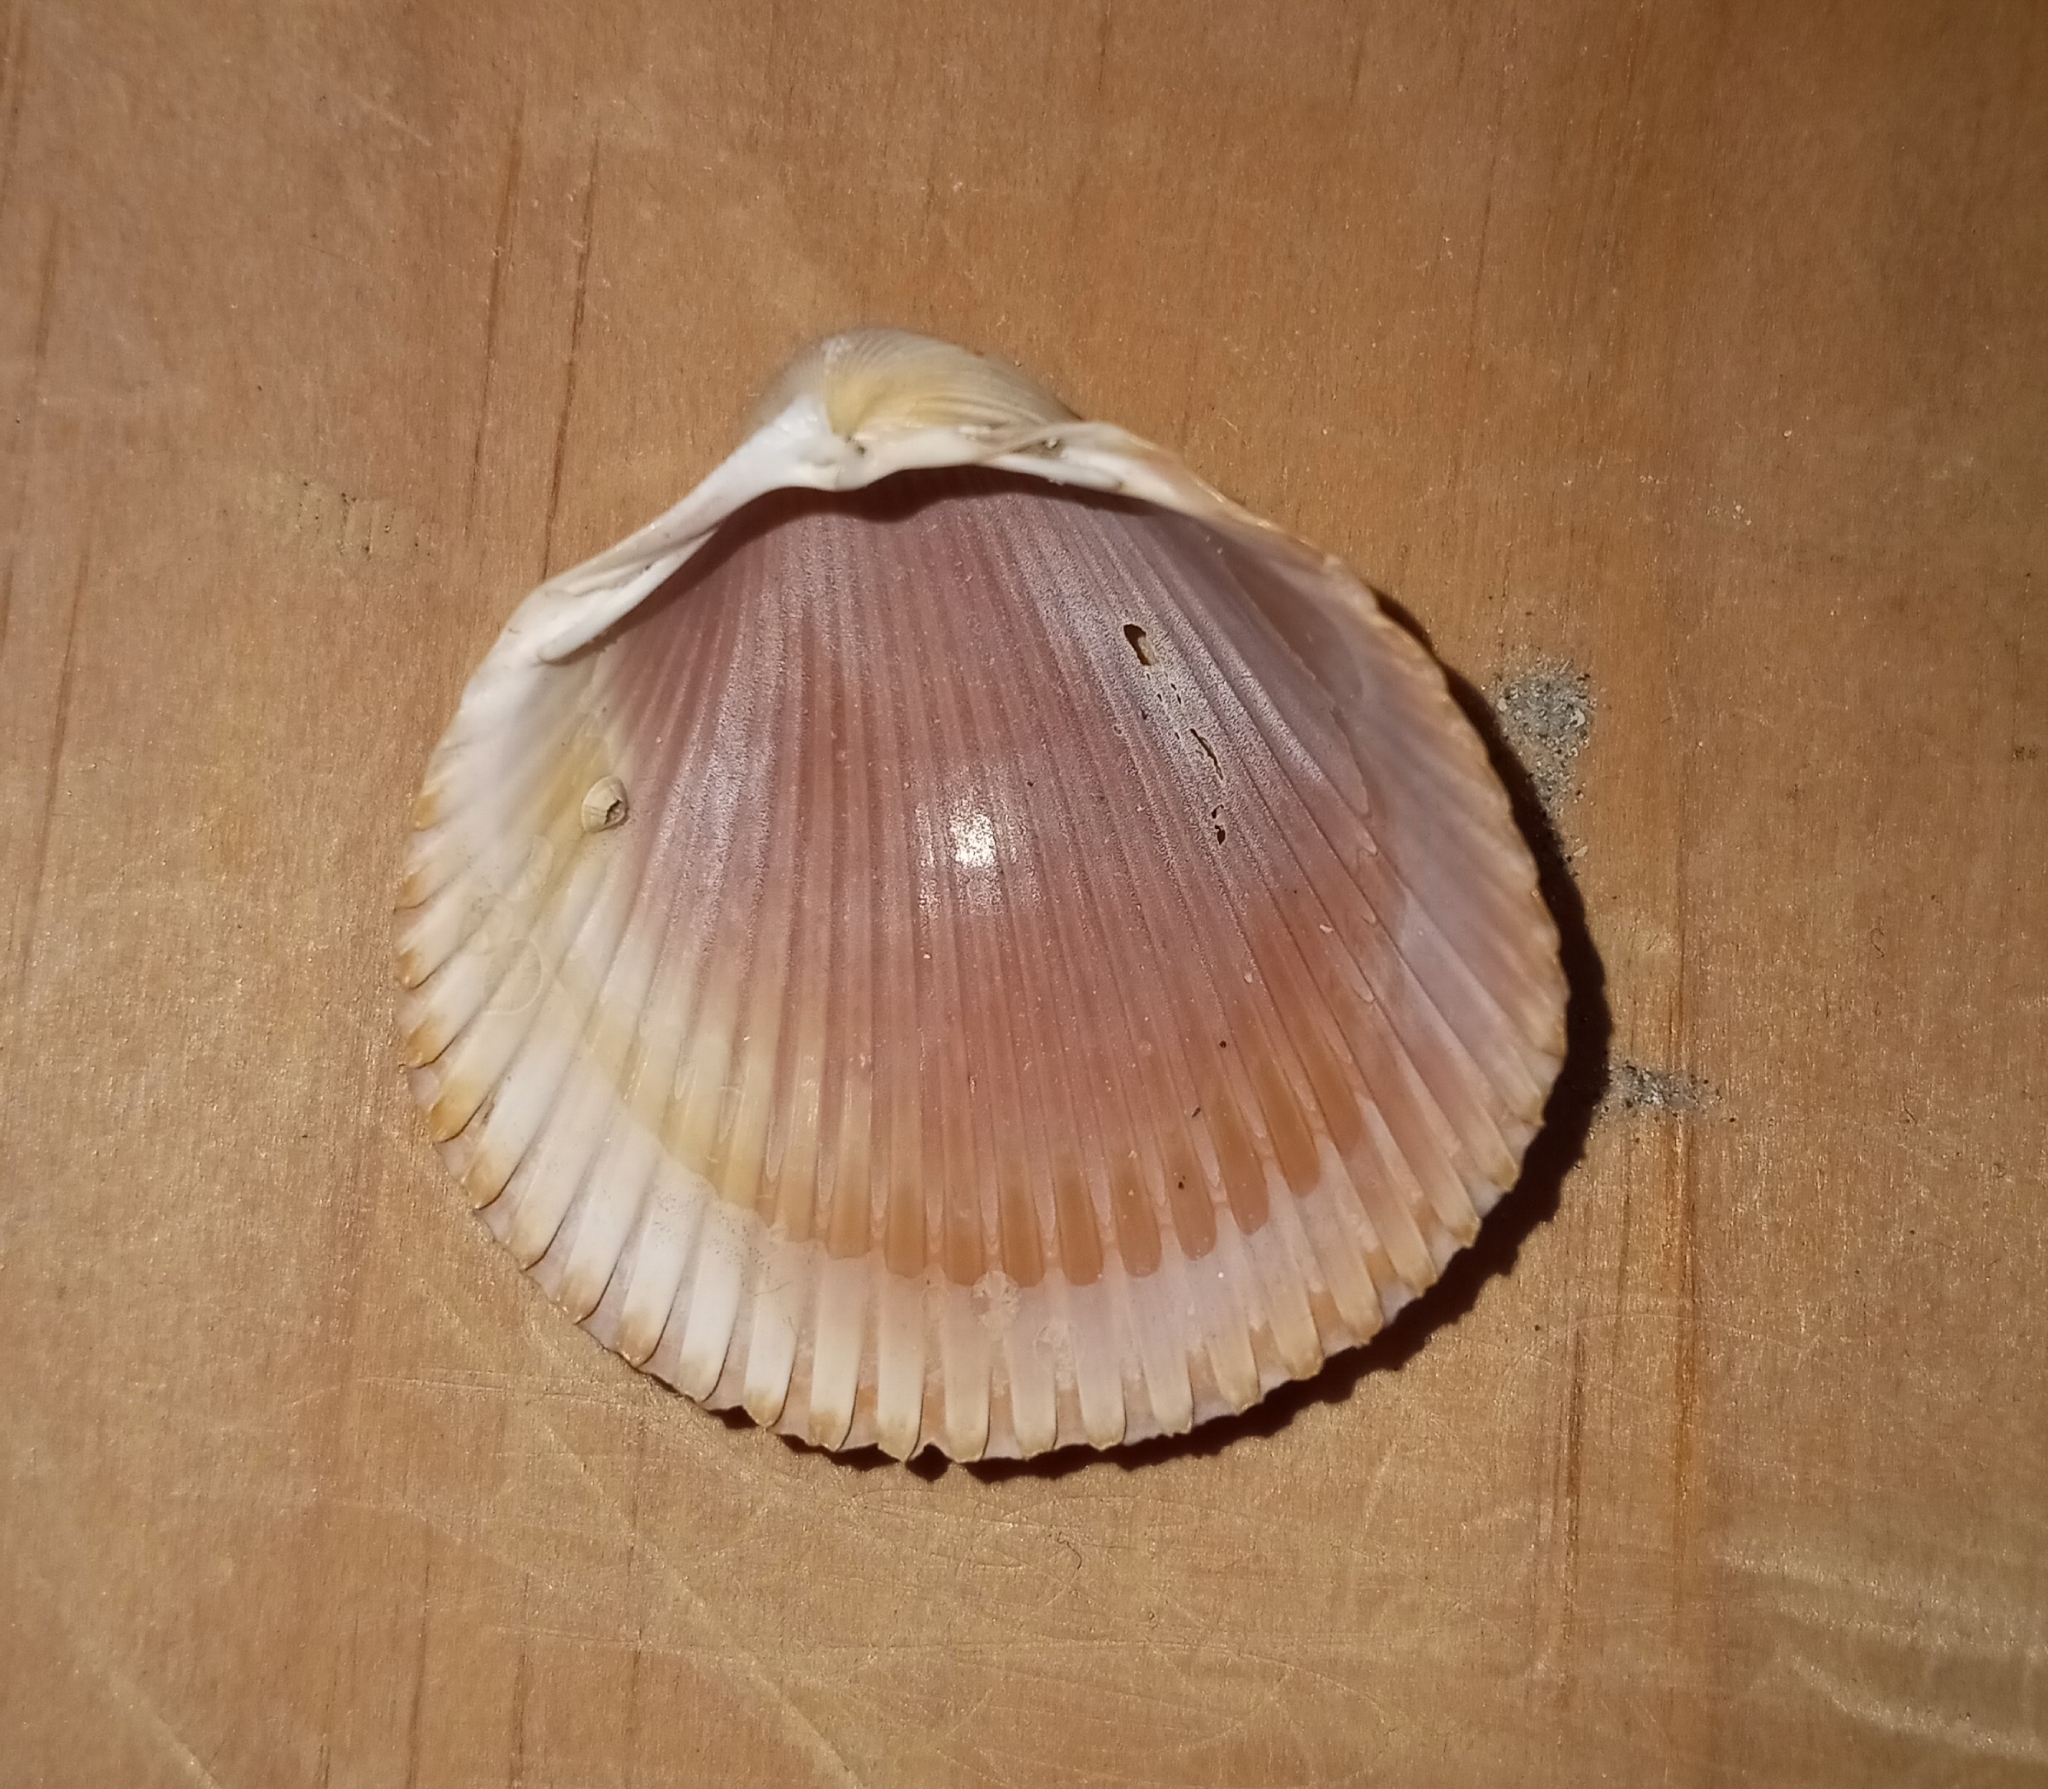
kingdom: Animalia
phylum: Mollusca
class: Bivalvia
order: Cardiida
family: Cardiidae
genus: Dinocardium
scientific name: Dinocardium robustum
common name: Atlantic giant cockle
